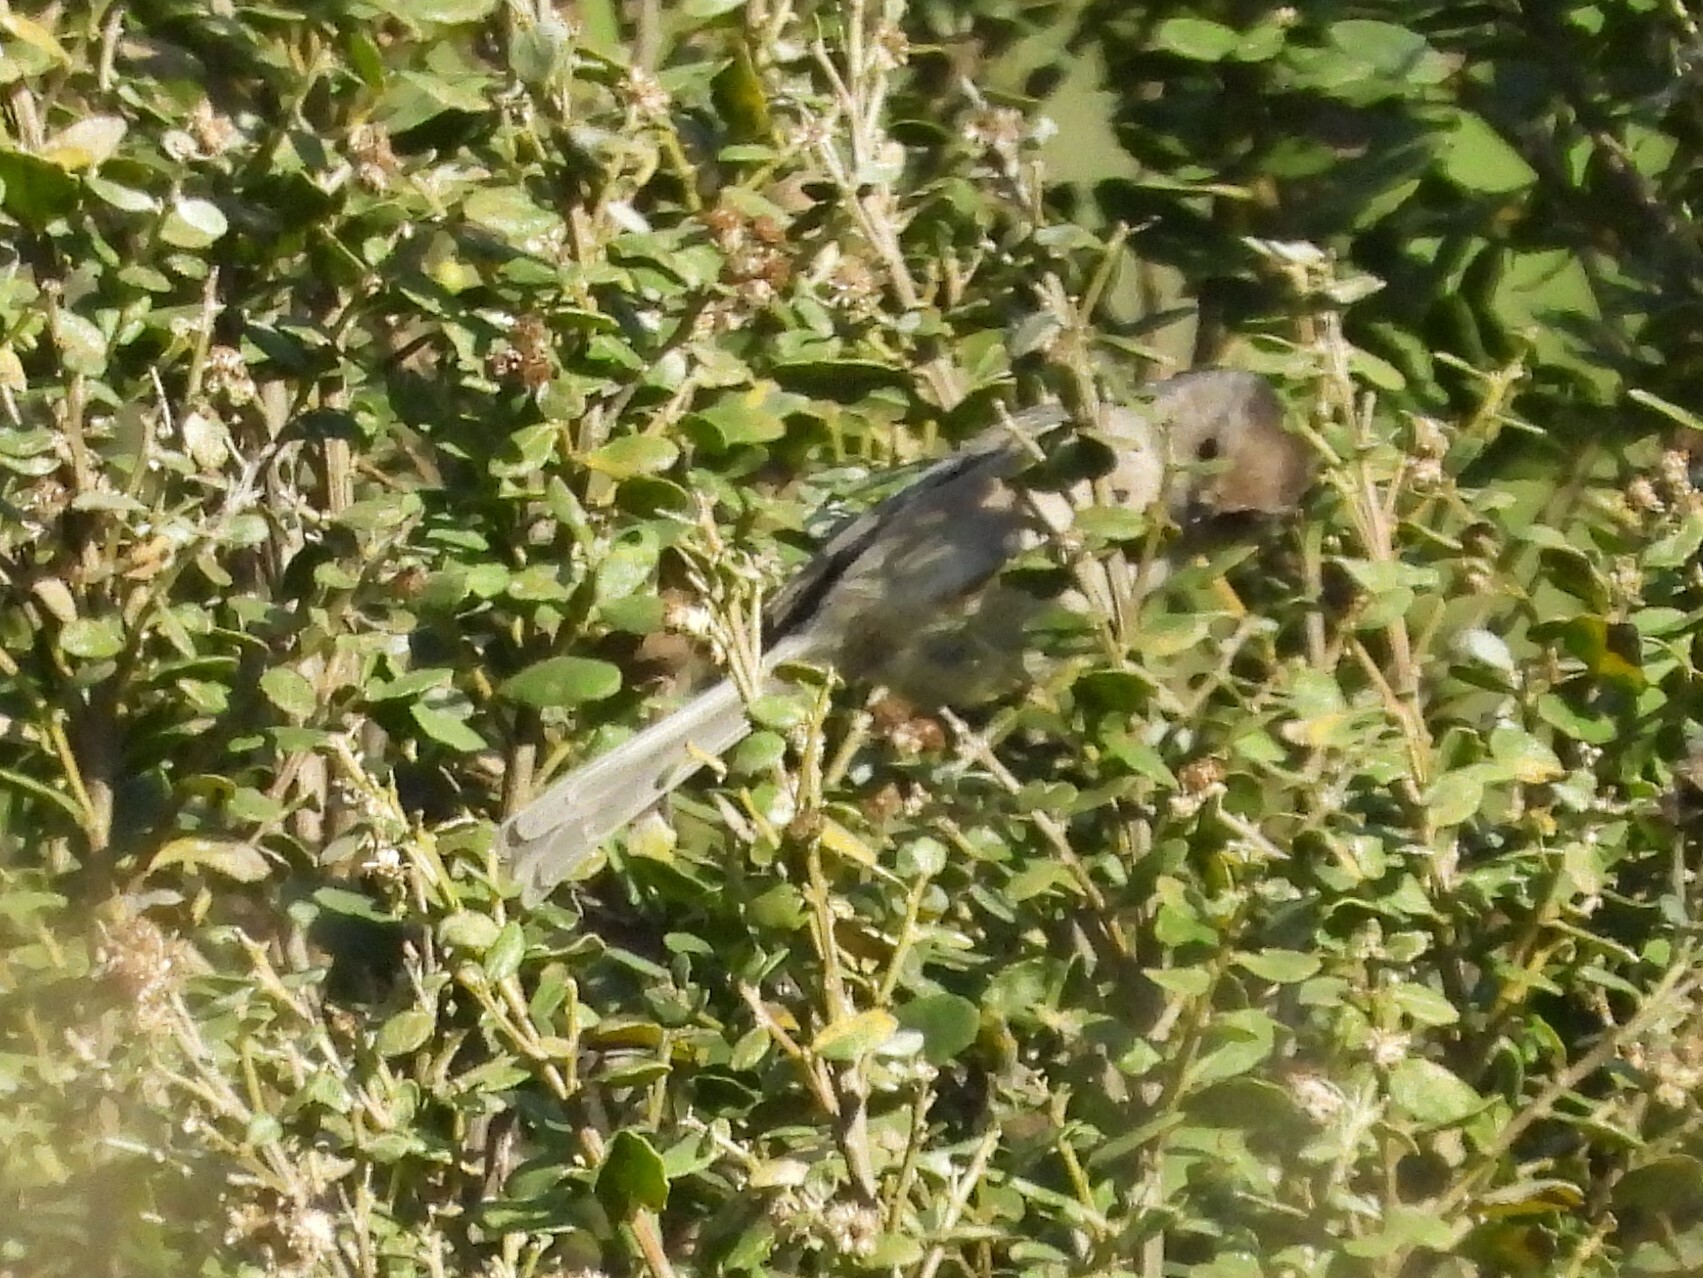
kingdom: Animalia
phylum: Chordata
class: Aves
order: Passeriformes
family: Aegithalidae
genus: Psaltriparus
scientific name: Psaltriparus minimus
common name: American bushtit
